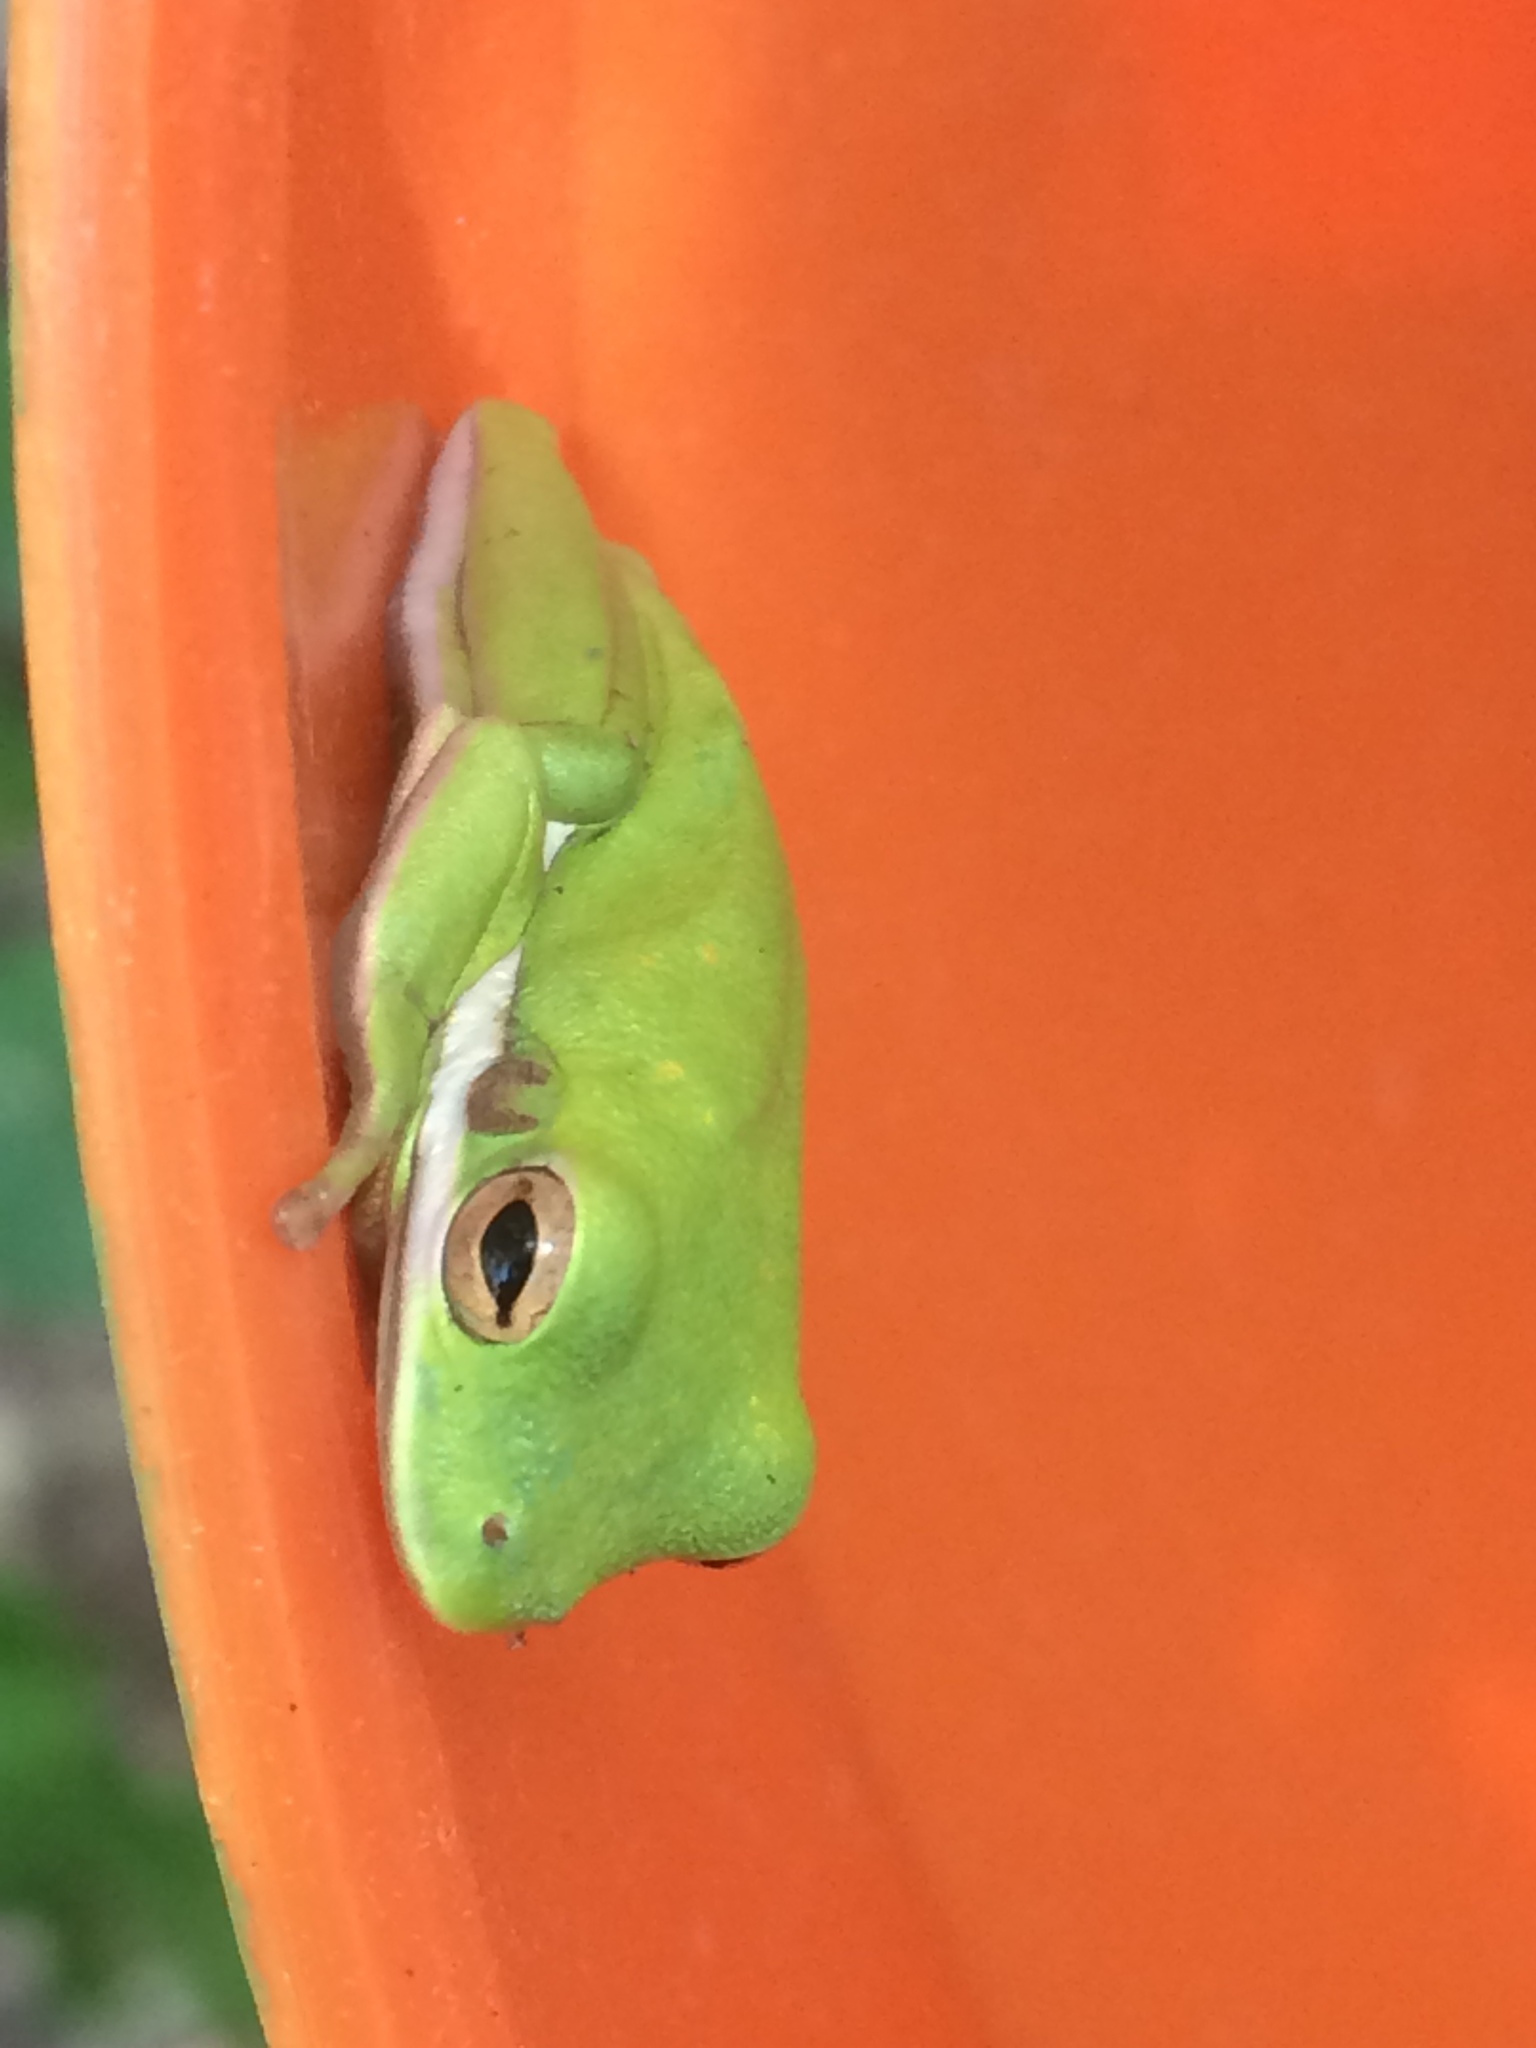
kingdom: Animalia
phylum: Chordata
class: Amphibia
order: Anura
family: Hylidae
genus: Dryophytes
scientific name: Dryophytes cinereus
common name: Green treefrog
